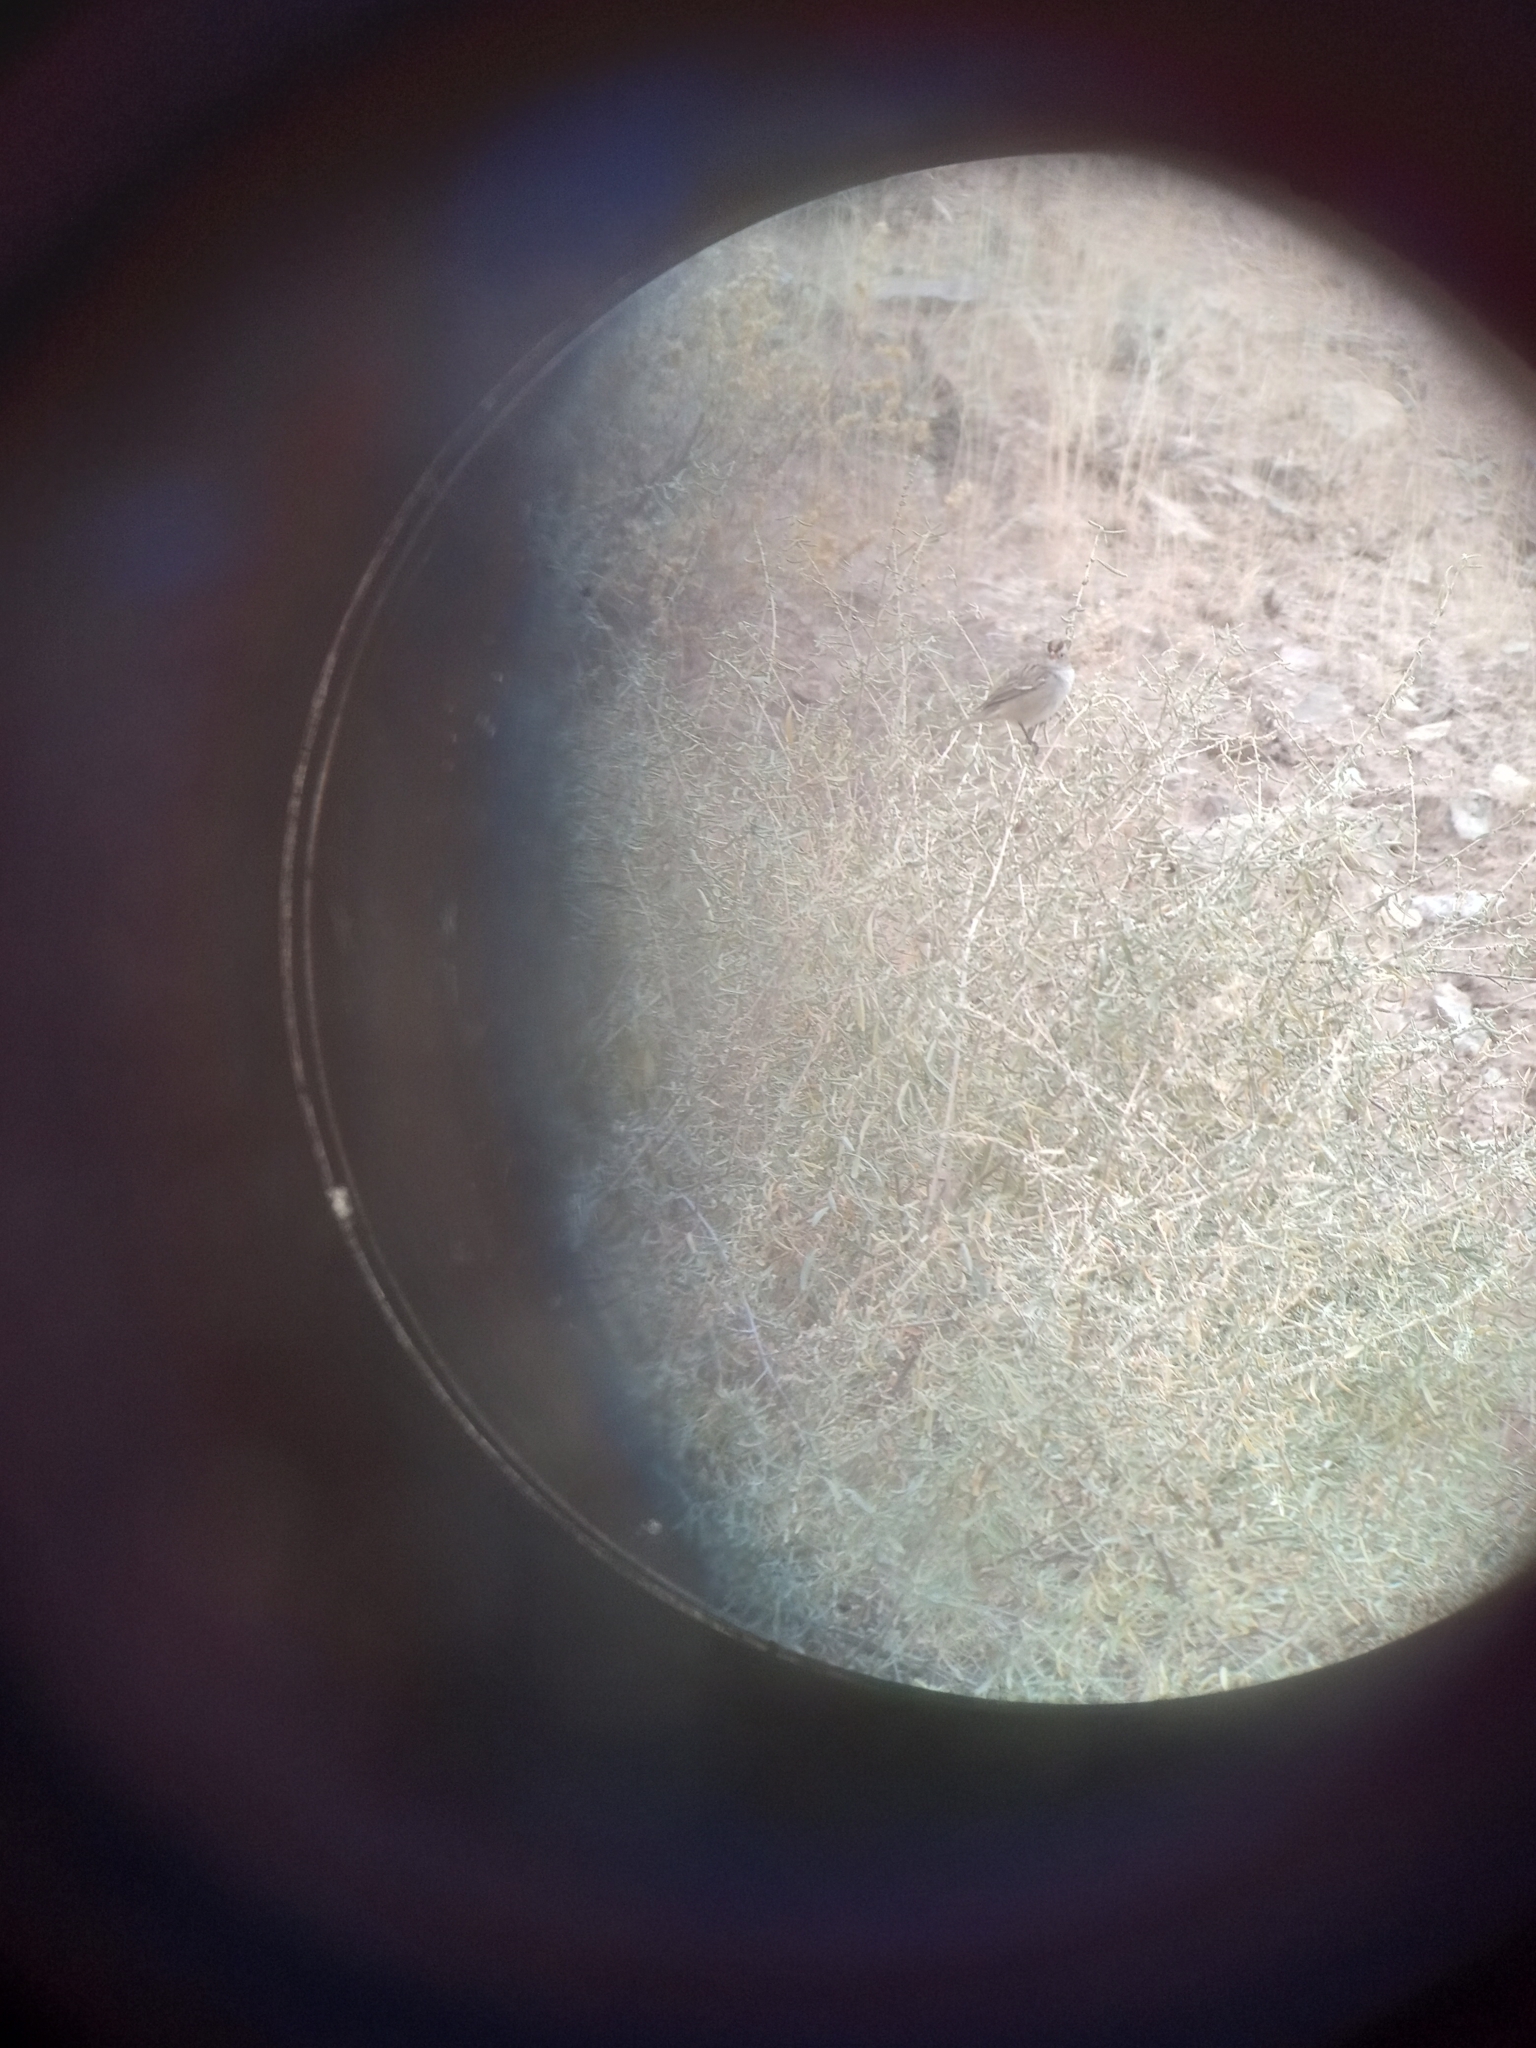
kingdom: Animalia
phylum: Chordata
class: Aves
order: Passeriformes
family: Passerellidae
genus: Zonotrichia
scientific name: Zonotrichia leucophrys
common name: White-crowned sparrow
